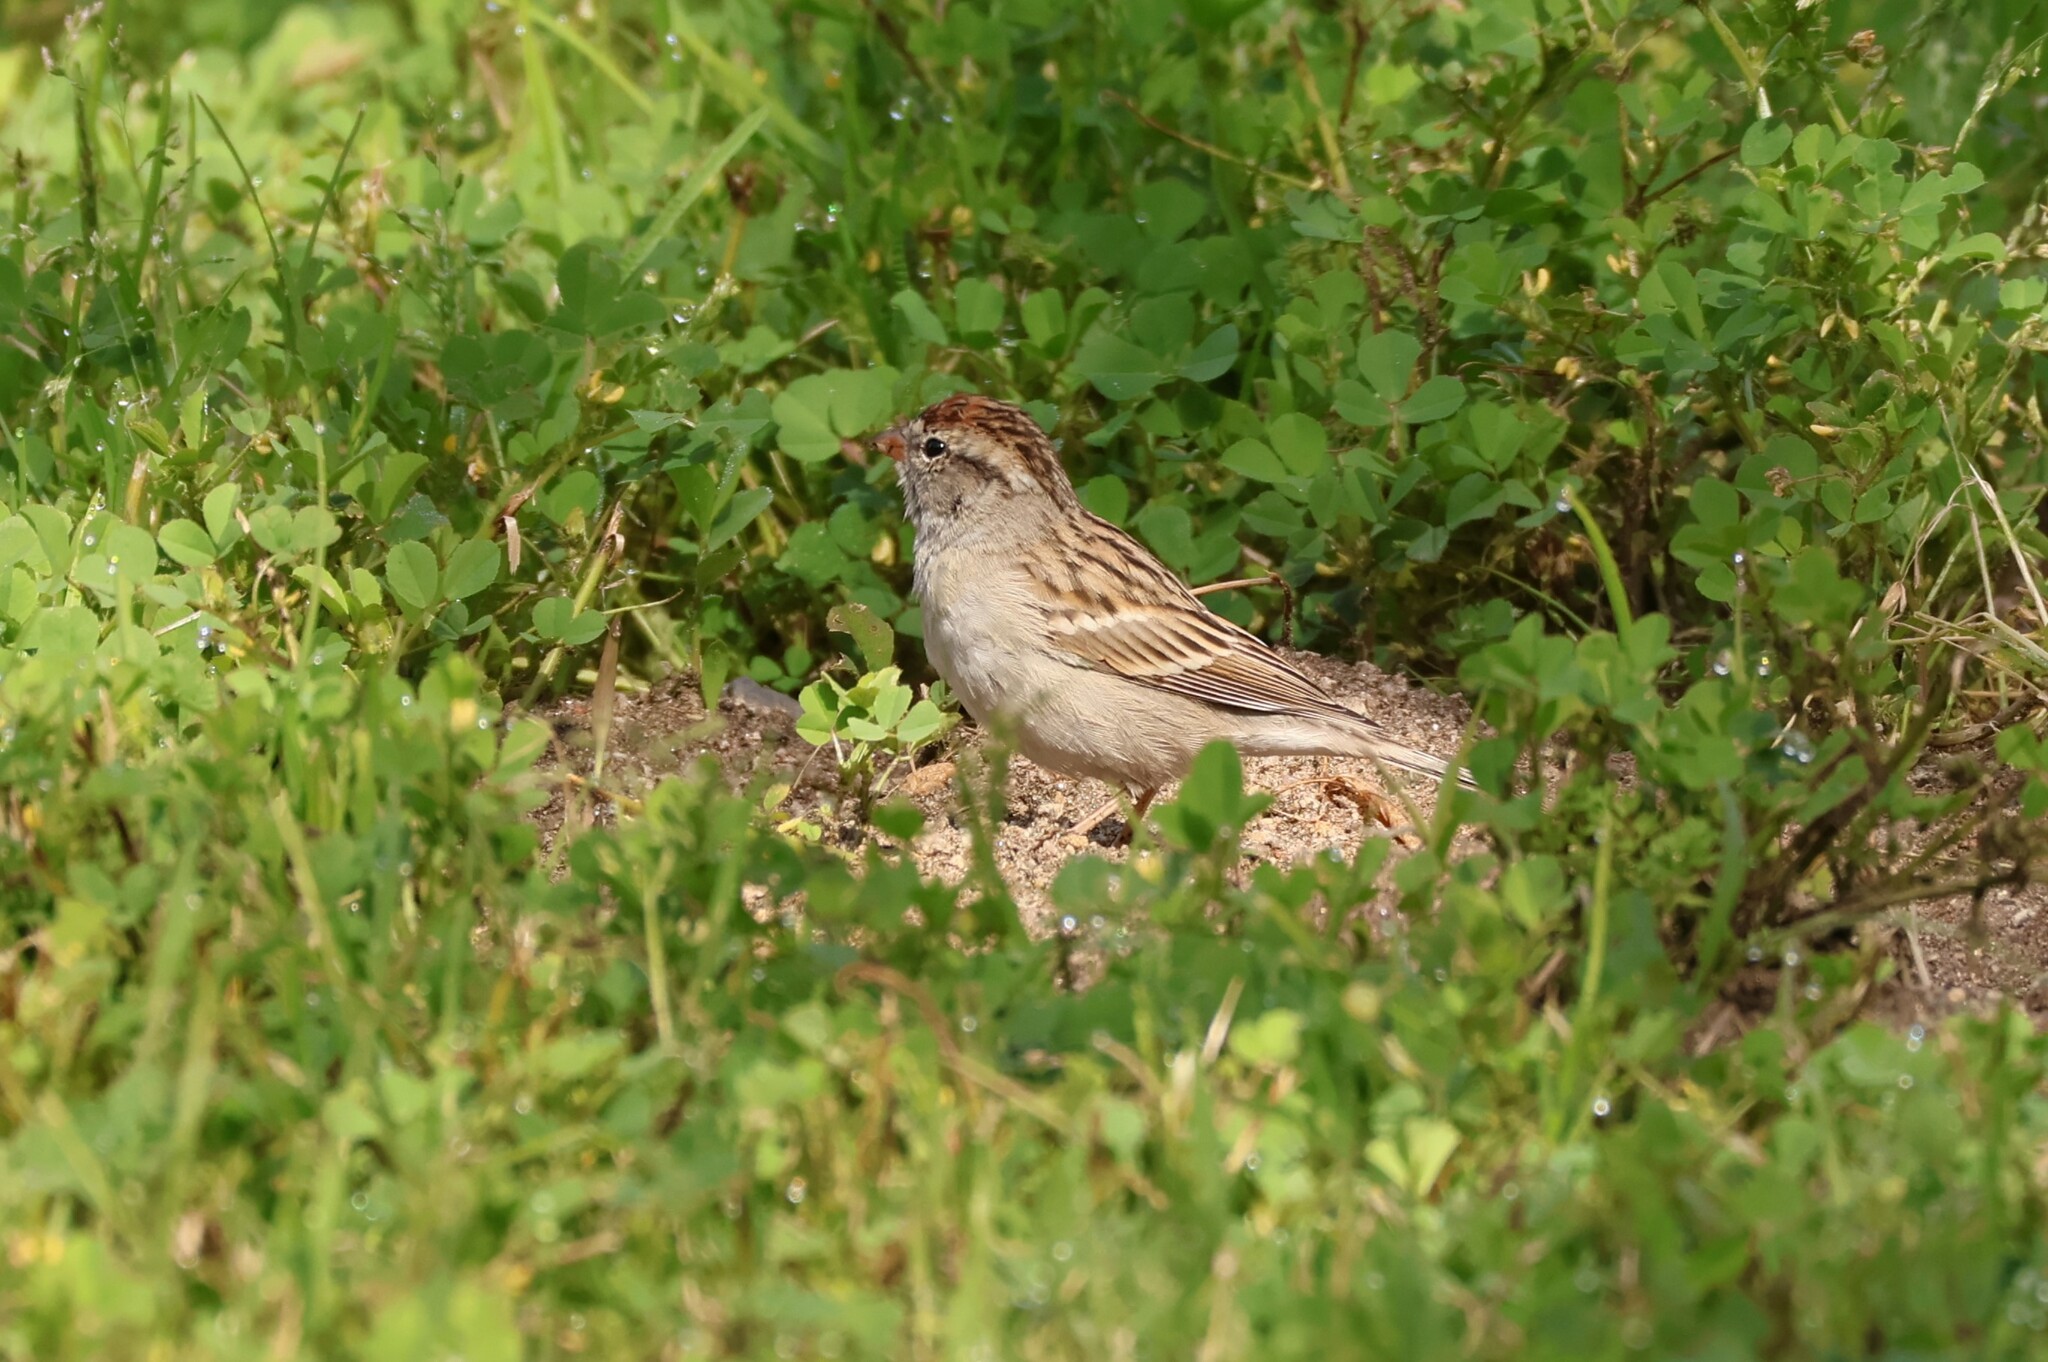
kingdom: Animalia
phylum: Chordata
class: Aves
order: Passeriformes
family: Passerellidae
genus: Spizella
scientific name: Spizella passerina
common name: Chipping sparrow
